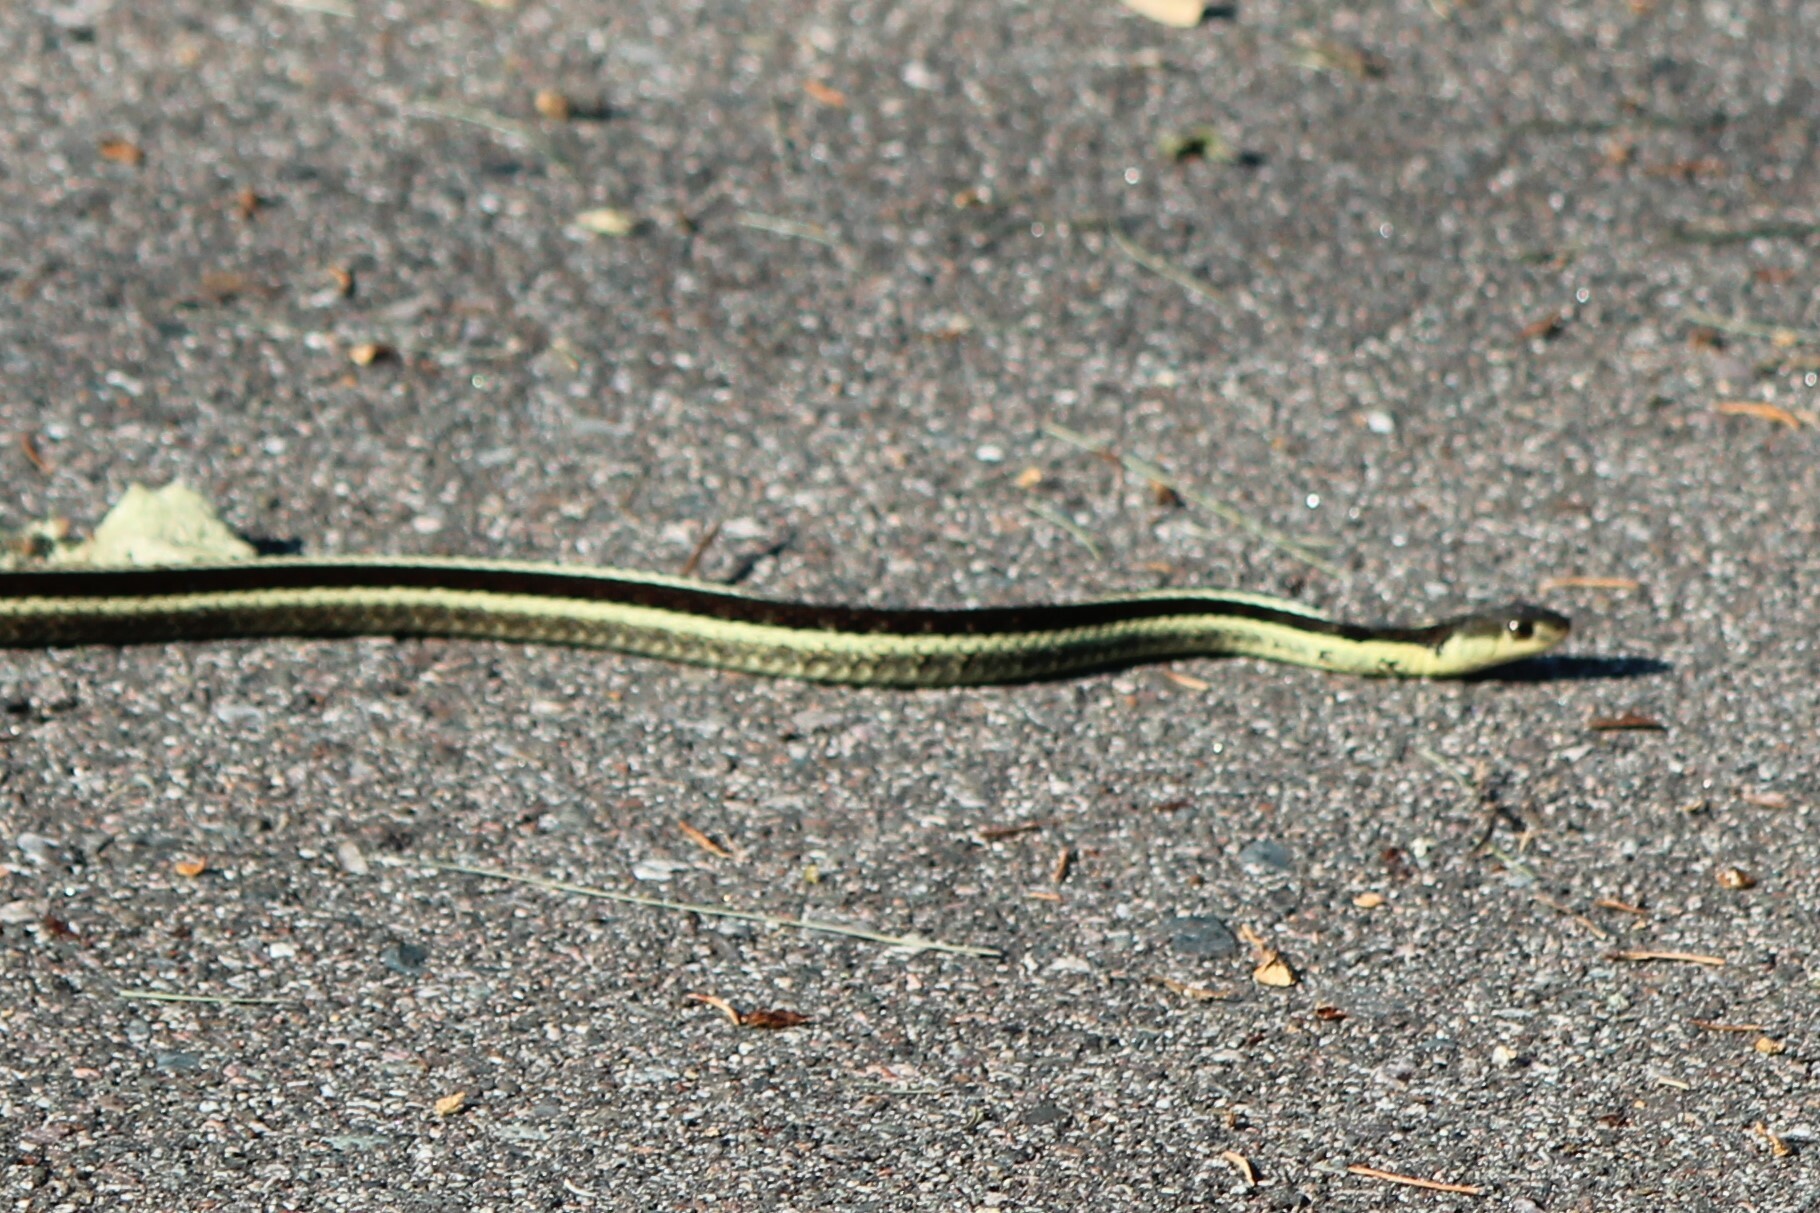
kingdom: Animalia
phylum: Chordata
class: Squamata
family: Colubridae
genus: Thamnophis
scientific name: Thamnophis sirtalis
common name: Common garter snake
